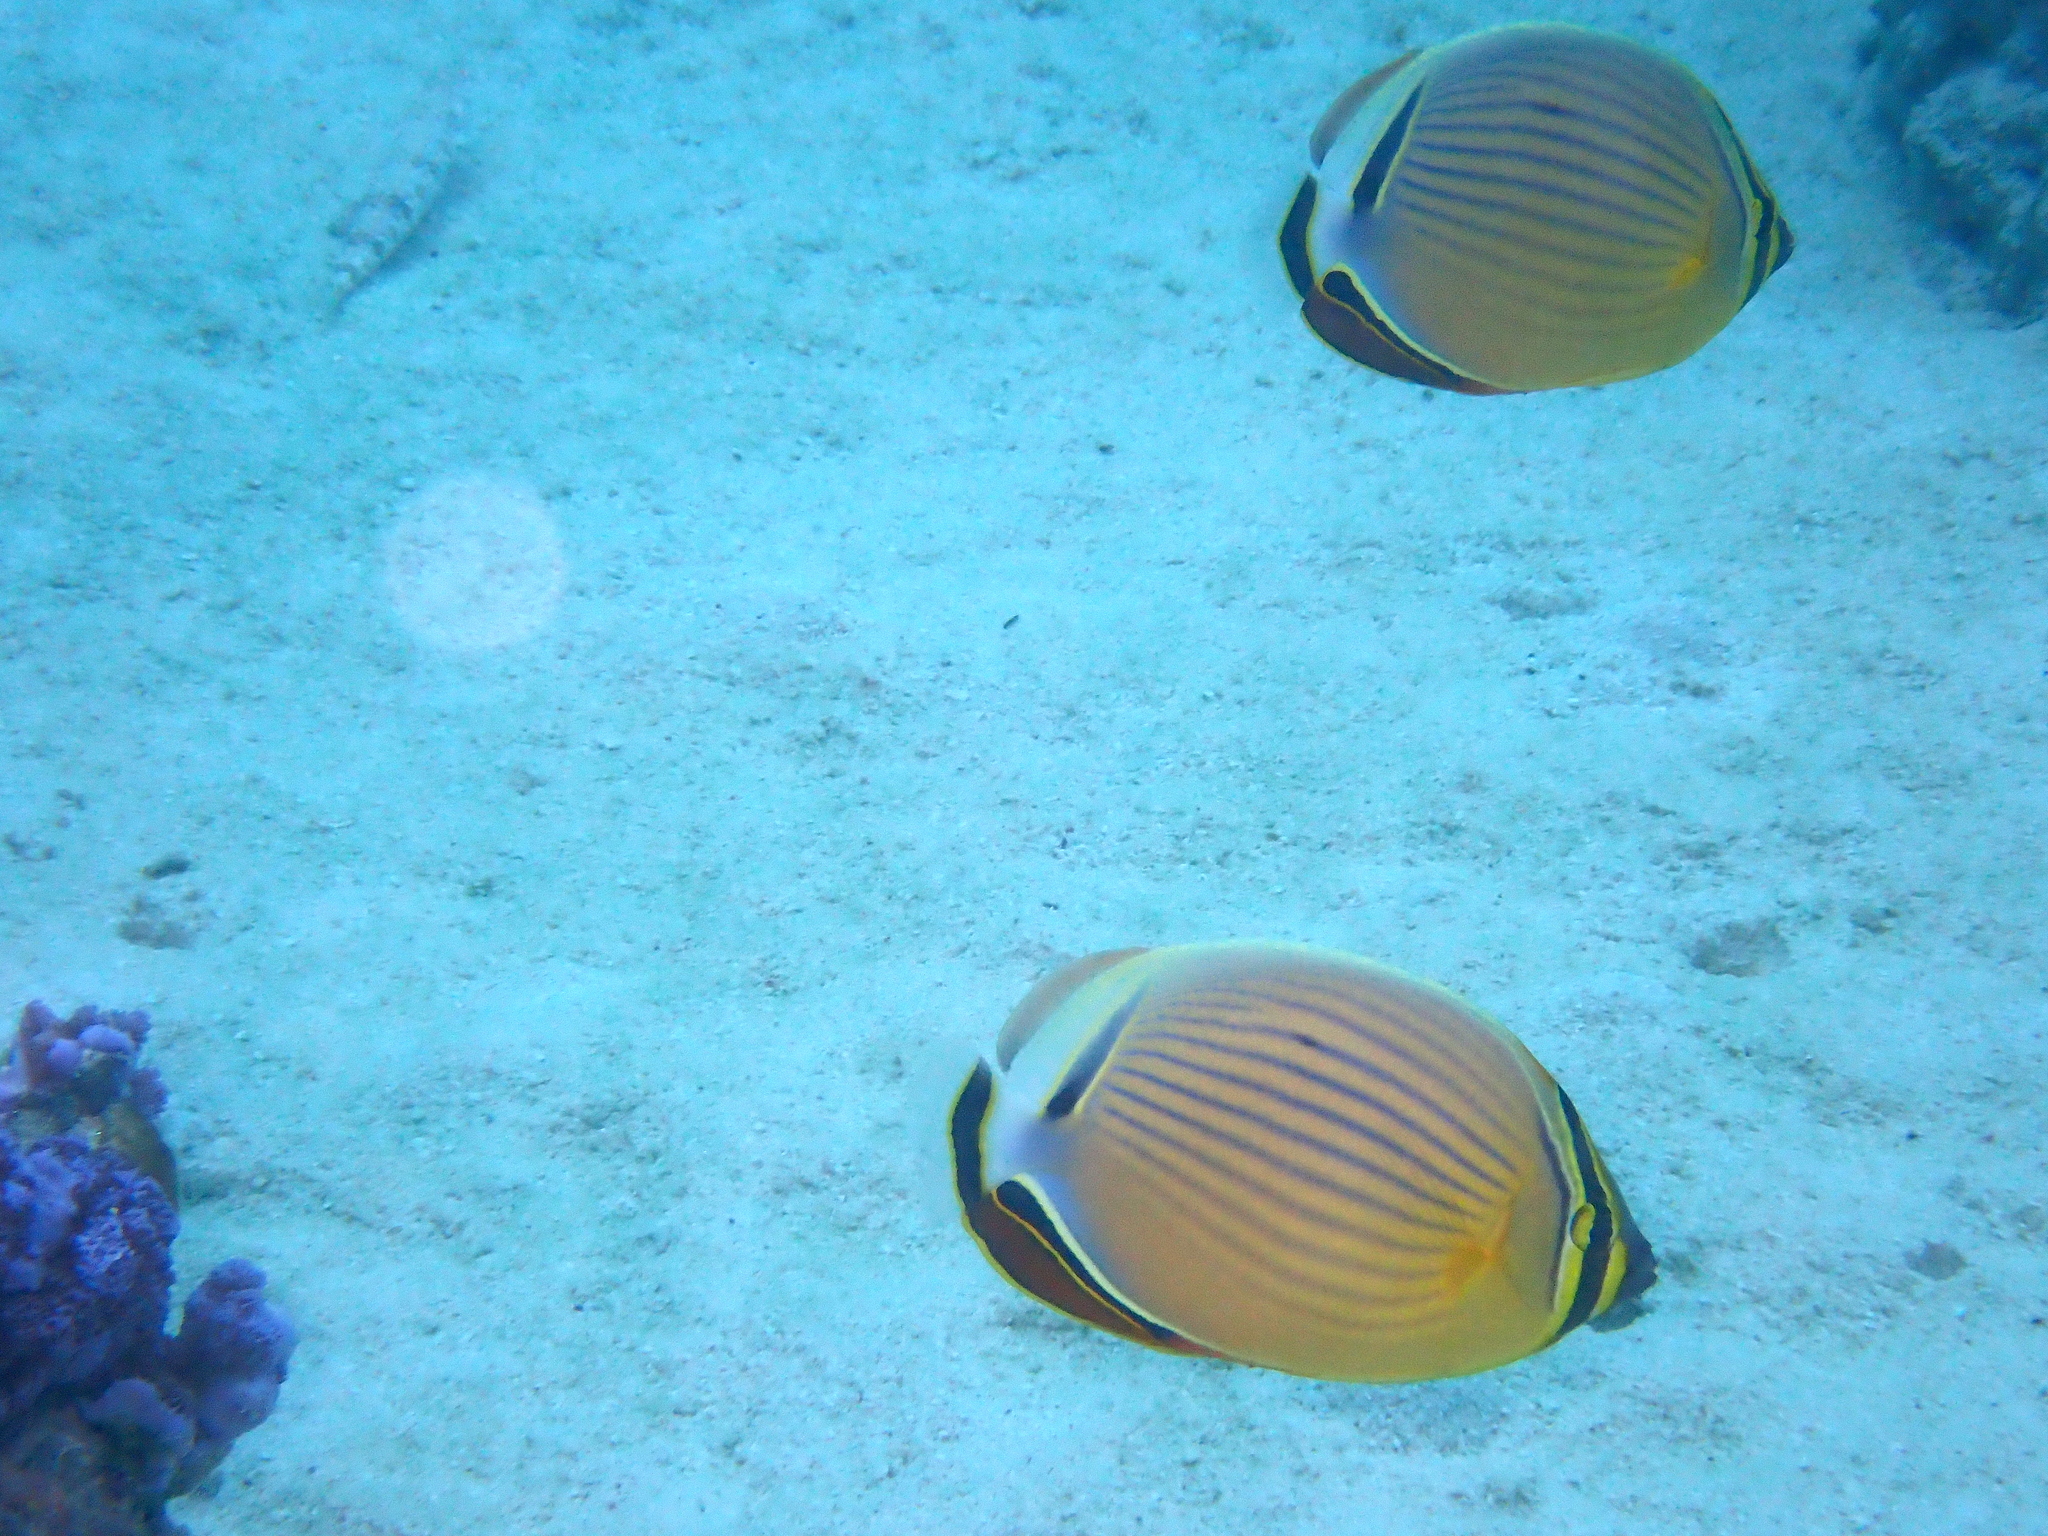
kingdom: Animalia
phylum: Chordata
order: Perciformes
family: Chaetodontidae
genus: Chaetodon
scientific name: Chaetodon lunulatus
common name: Redfin butterflyfish
